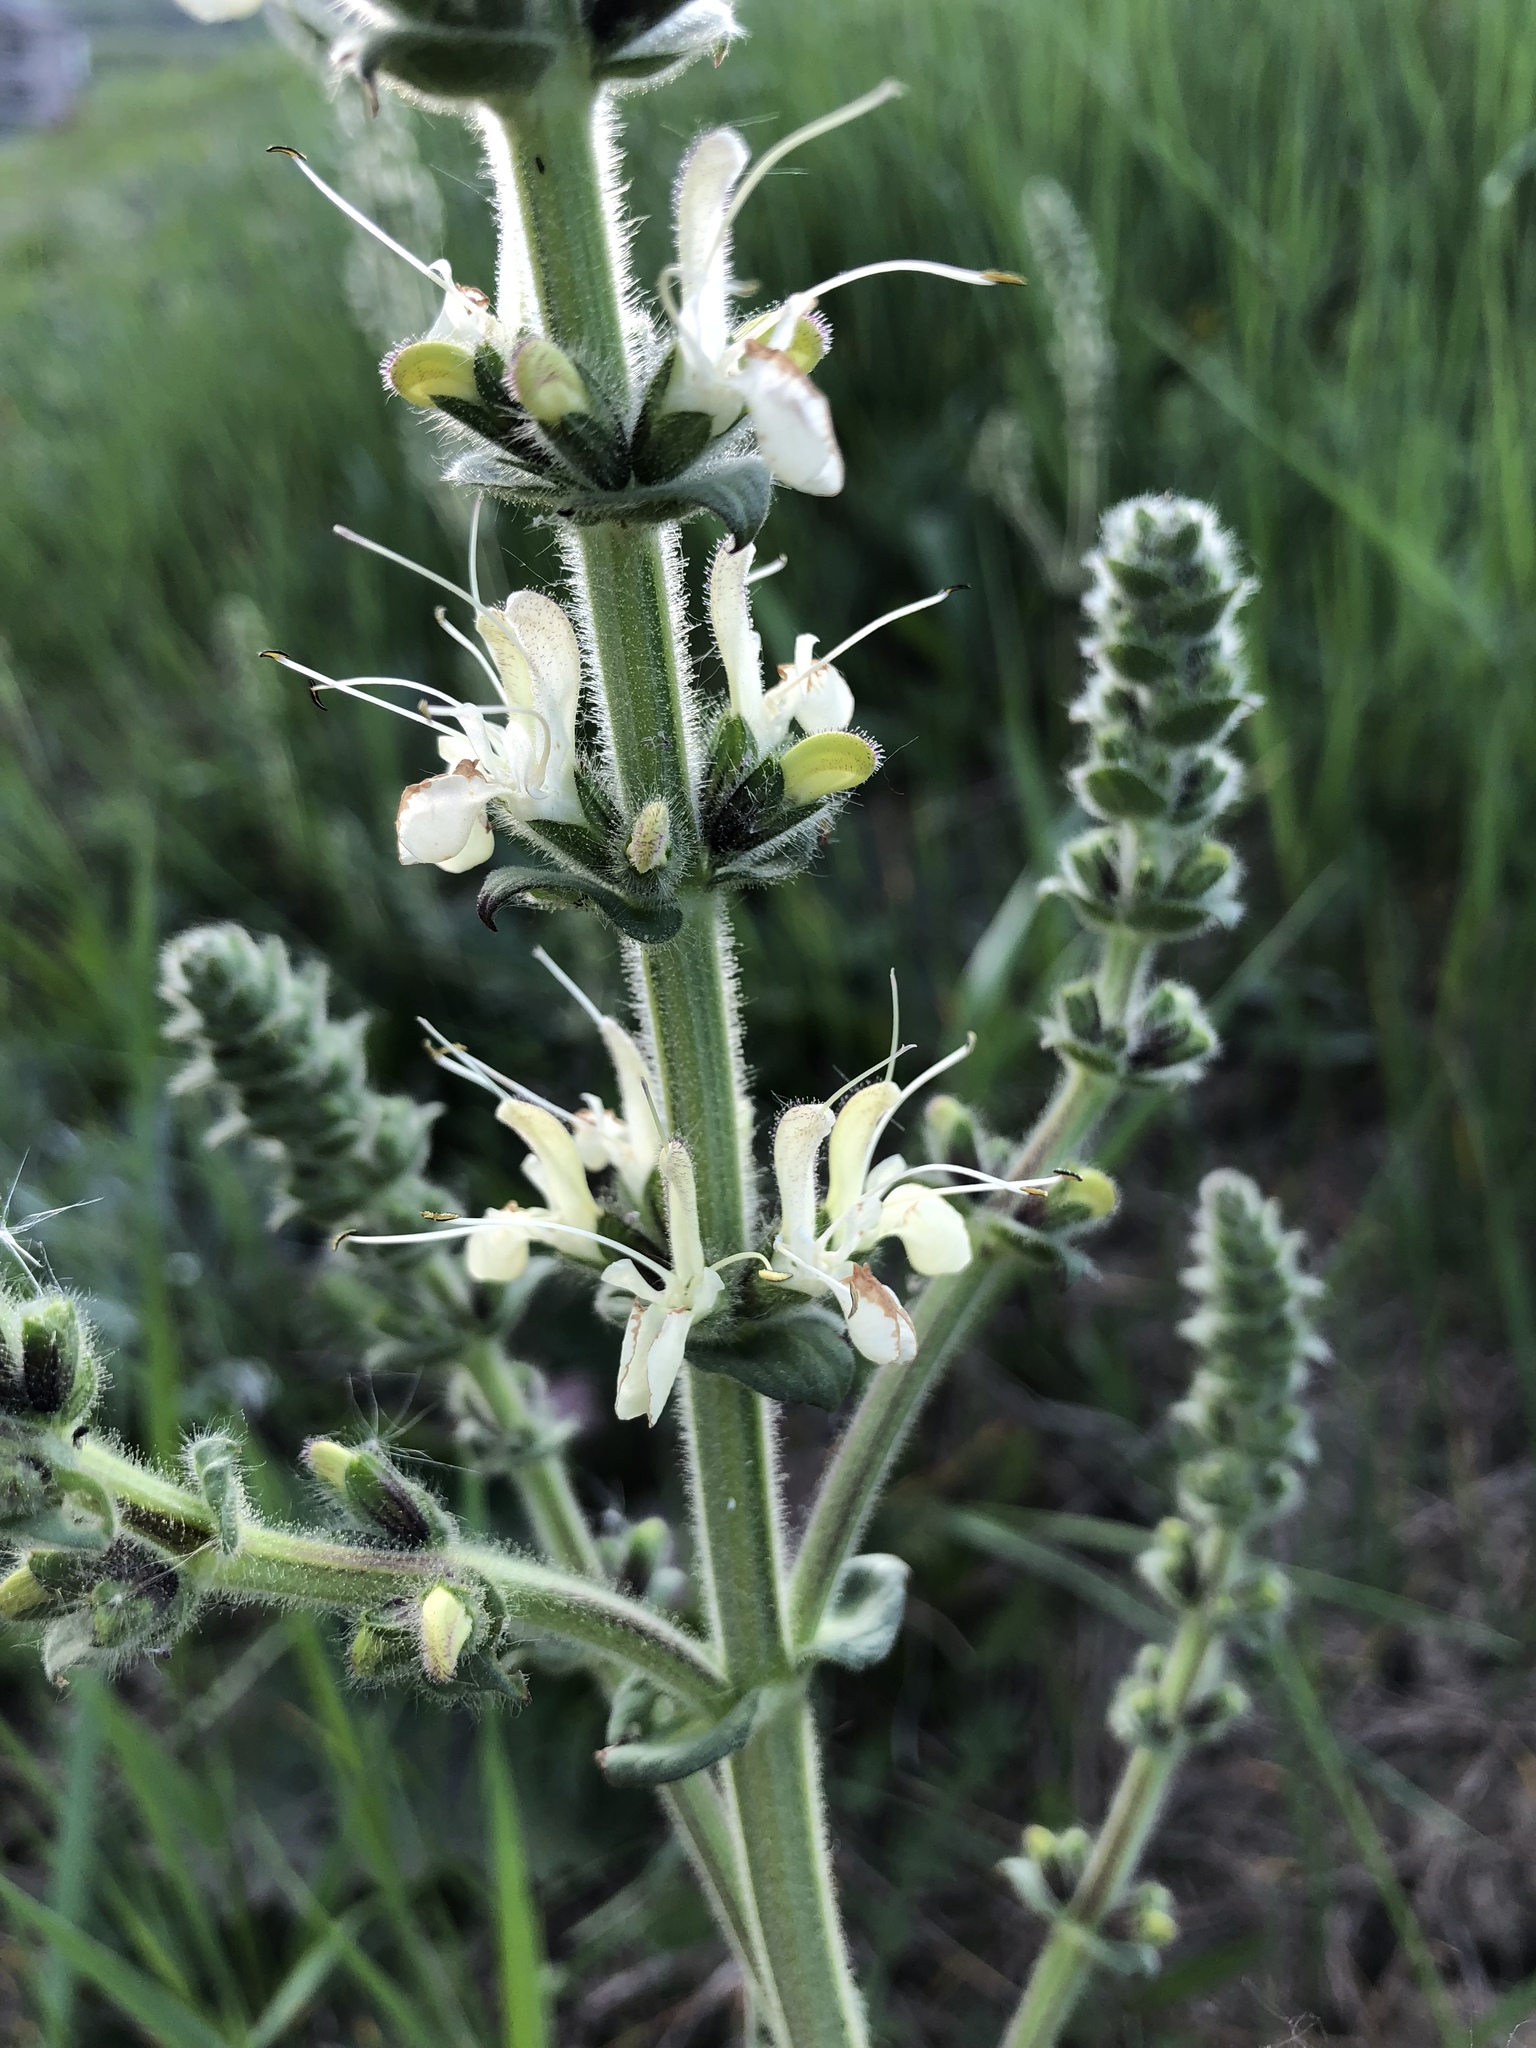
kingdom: Plantae
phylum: Tracheophyta
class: Magnoliopsida
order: Lamiales
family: Lamiaceae
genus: Salvia
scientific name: Salvia austriaca
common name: Austrian sage
